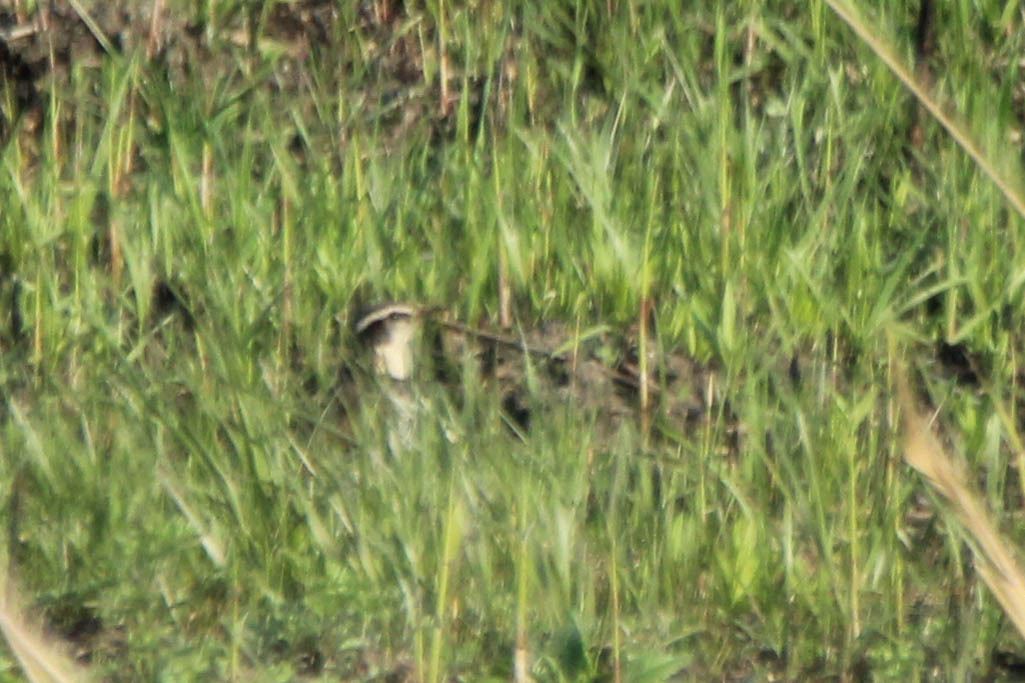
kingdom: Animalia
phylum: Chordata
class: Aves
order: Passeriformes
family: Turdidae
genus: Turdus
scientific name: Turdus eunomus
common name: Dusky thrush
